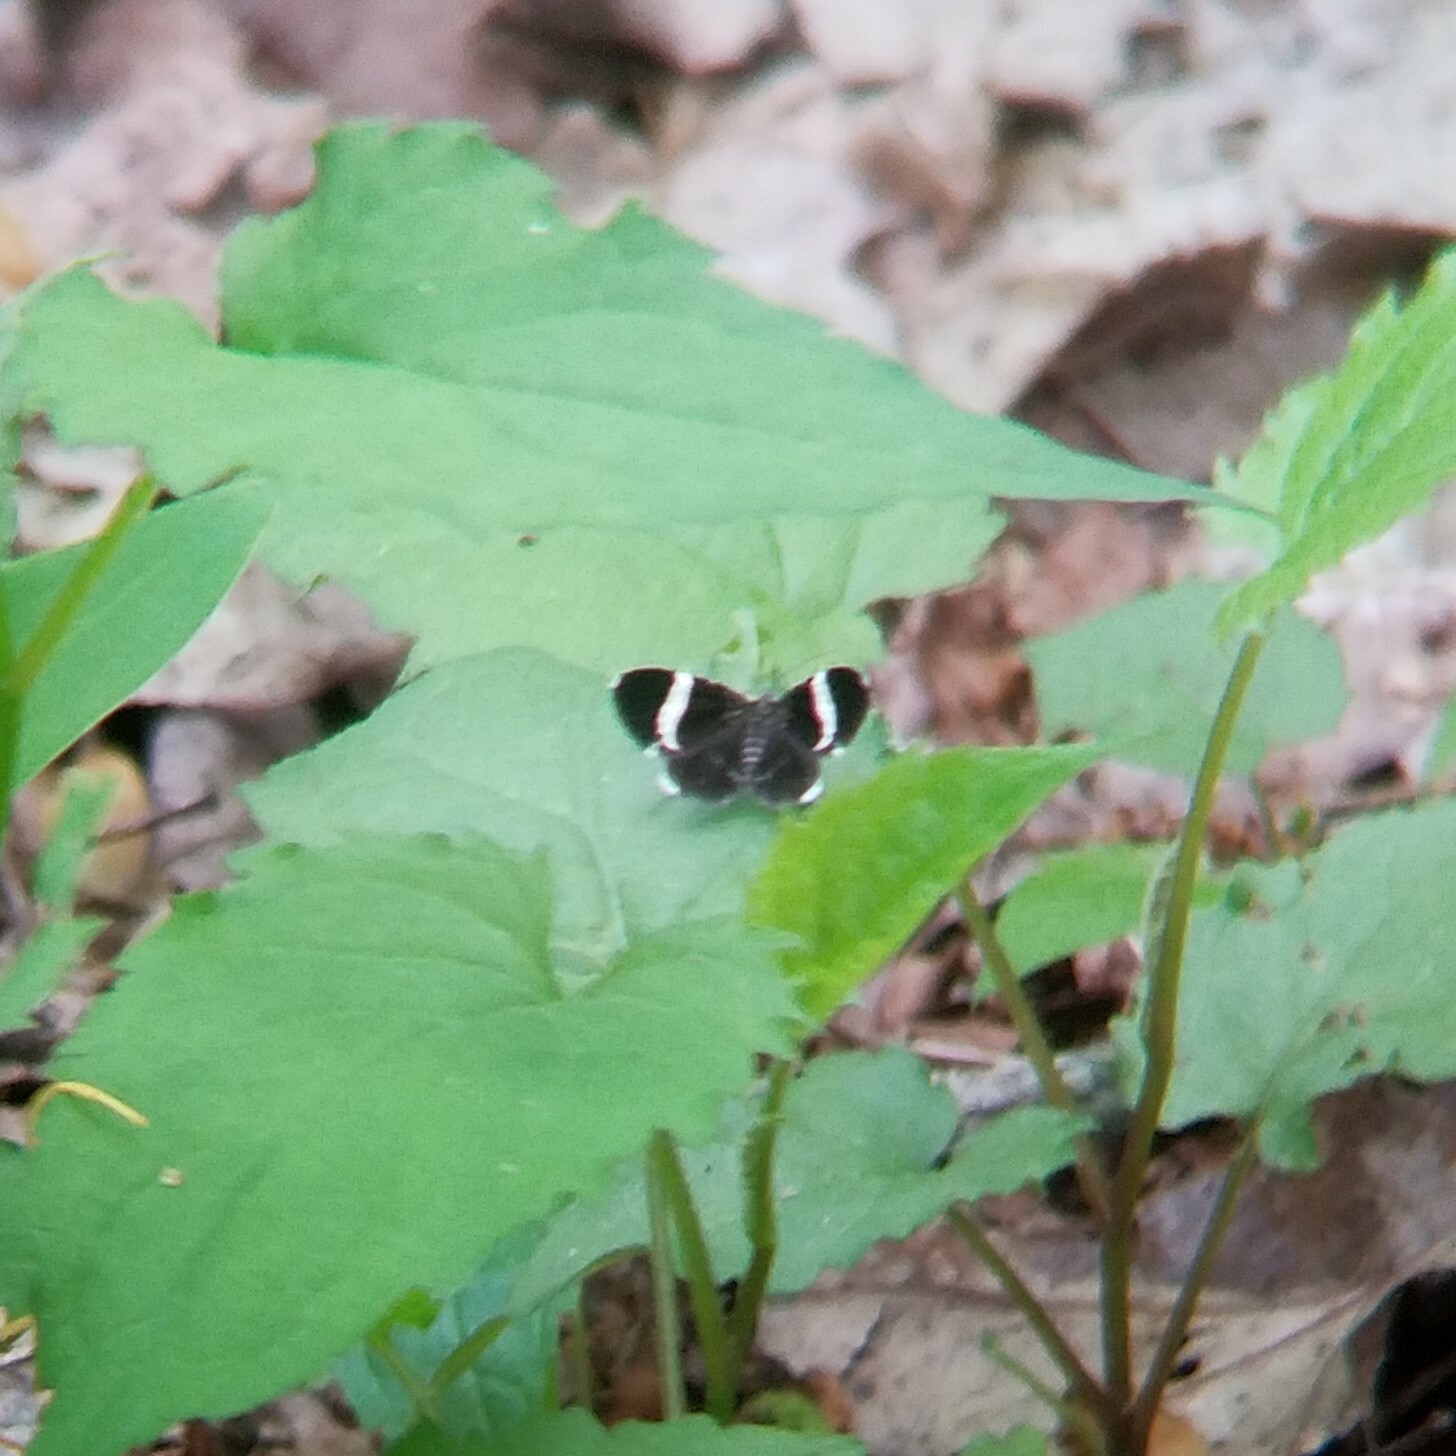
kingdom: Animalia
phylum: Arthropoda
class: Insecta
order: Lepidoptera
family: Geometridae
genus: Trichodezia
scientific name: Trichodezia albovittata
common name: White striped black
